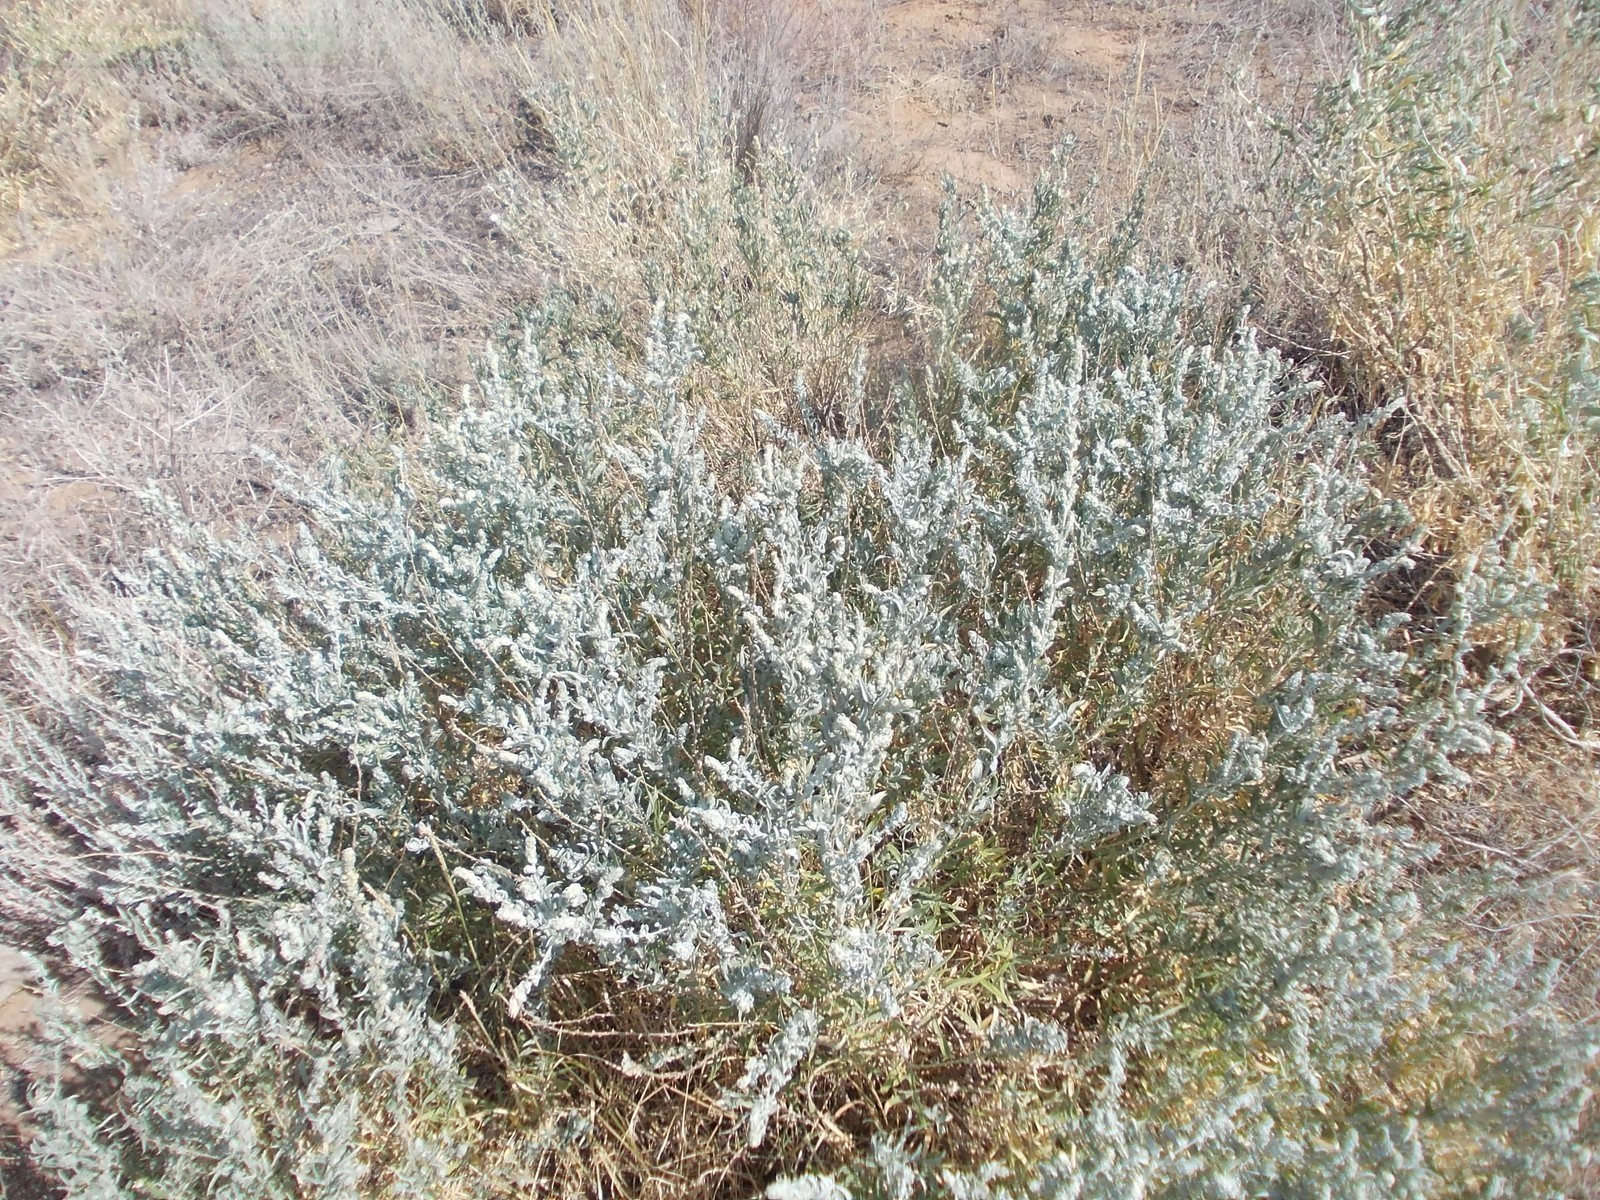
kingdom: Plantae
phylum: Tracheophyta
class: Magnoliopsida
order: Caryophyllales
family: Amaranthaceae
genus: Krascheninnikovia
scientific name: Krascheninnikovia ceratoides
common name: Pamirian winterfat
